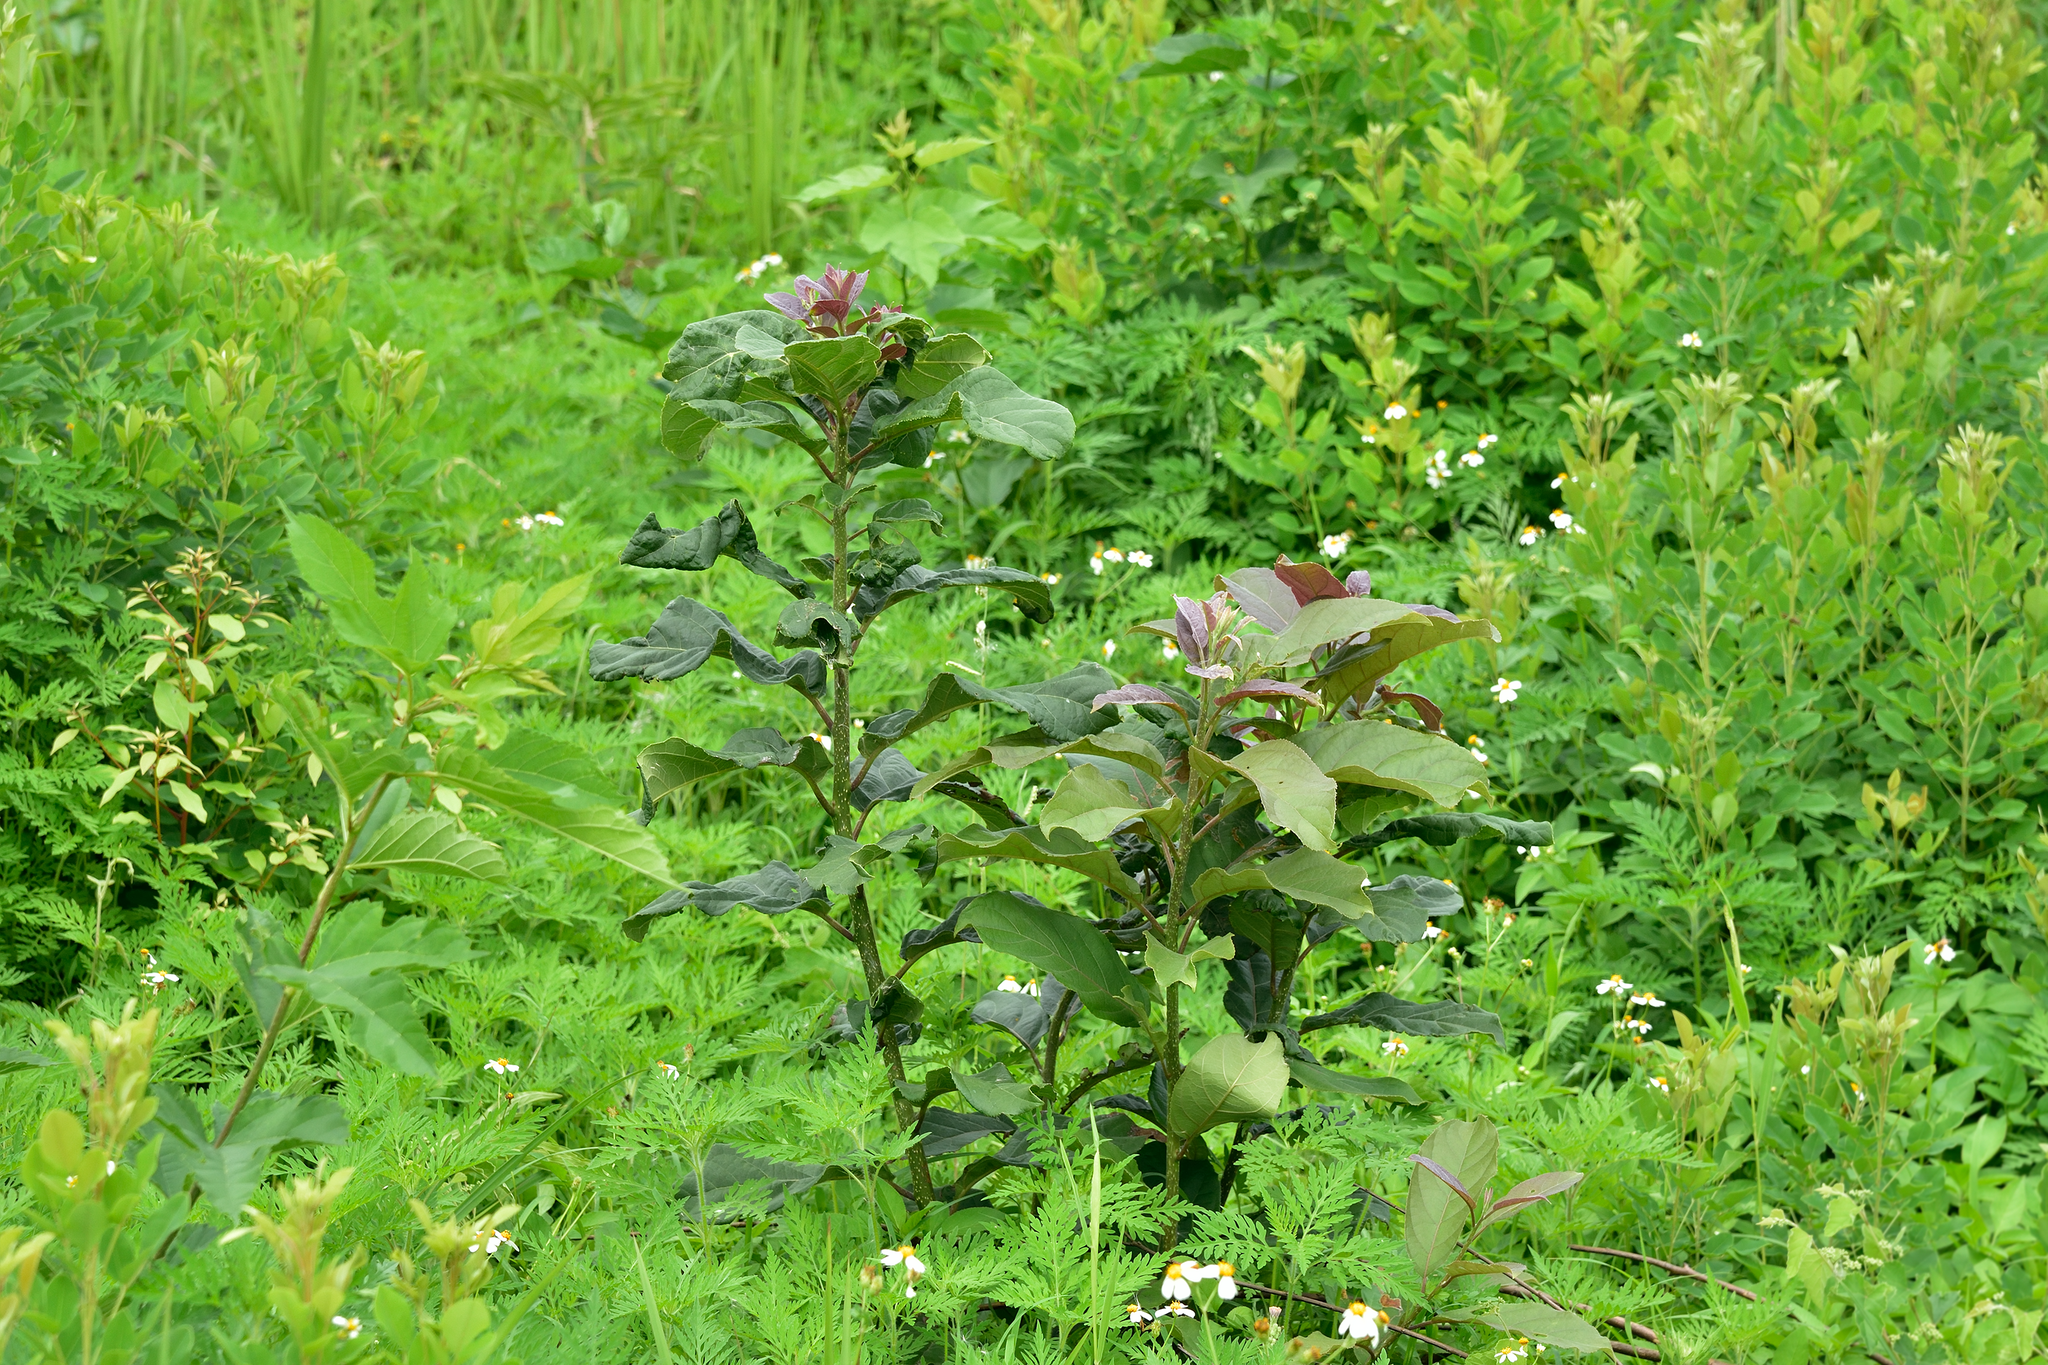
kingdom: Plantae
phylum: Tracheophyta
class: Magnoliopsida
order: Boraginales
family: Ehretiaceae
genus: Ehretia
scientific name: Ehretia acuminata
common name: Kodo wood
